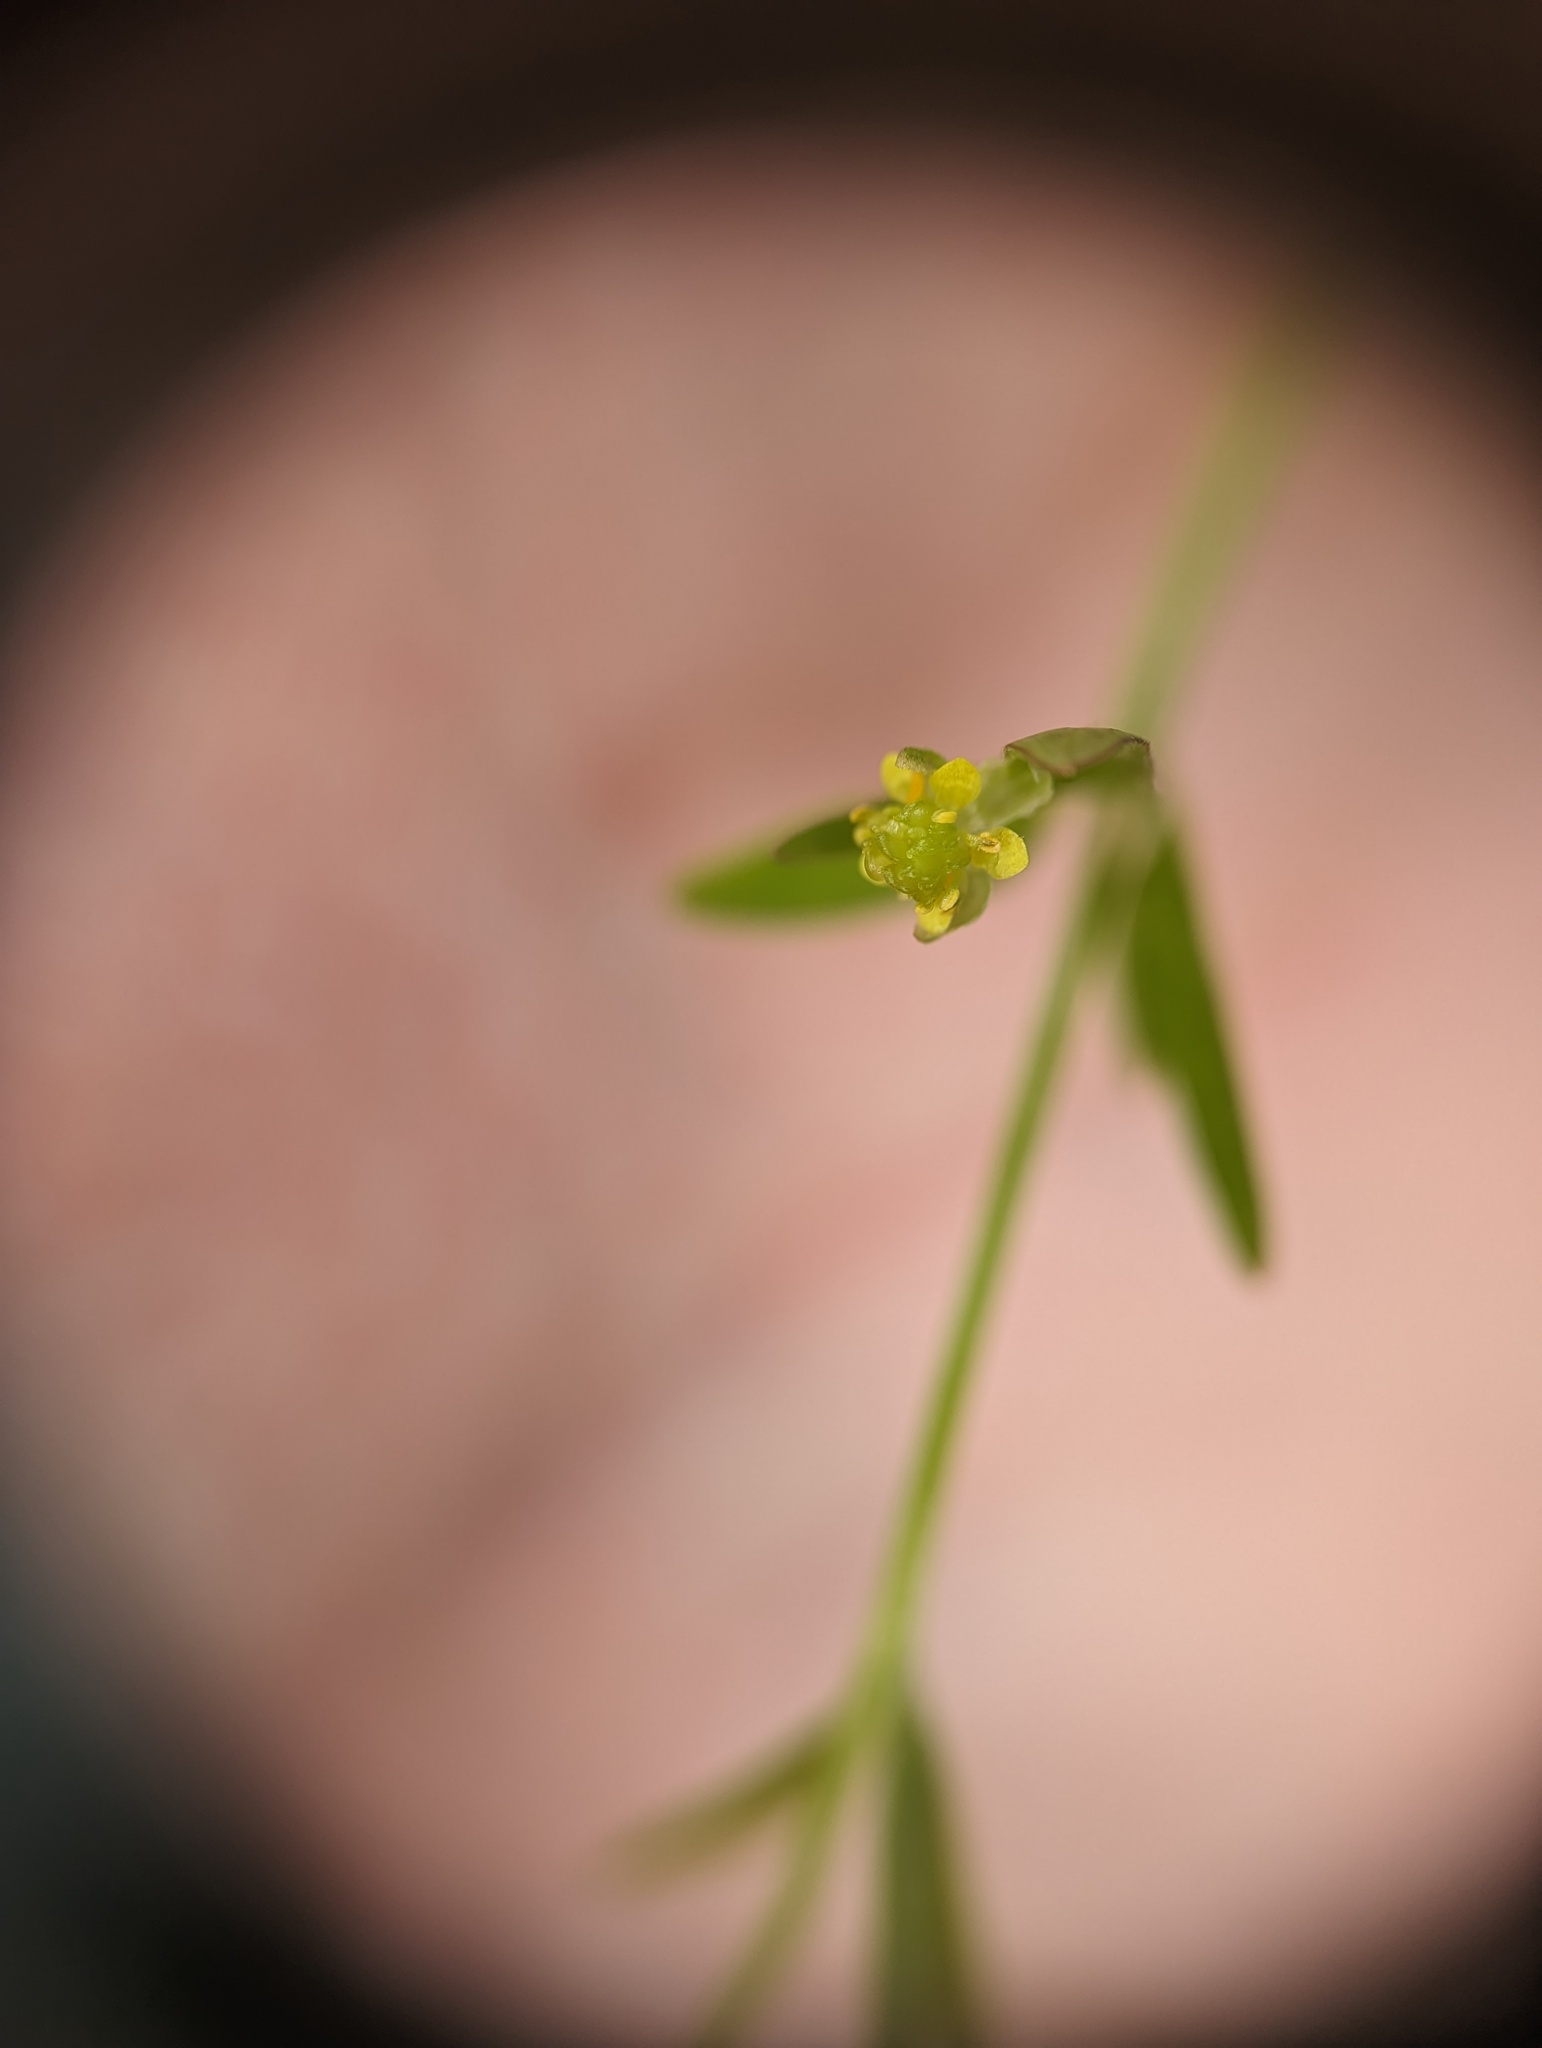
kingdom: Plantae
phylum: Tracheophyta
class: Magnoliopsida
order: Ranunculales
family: Ranunculaceae
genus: Ranunculus
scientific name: Ranunculus abortivus
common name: Early wood buttercup
